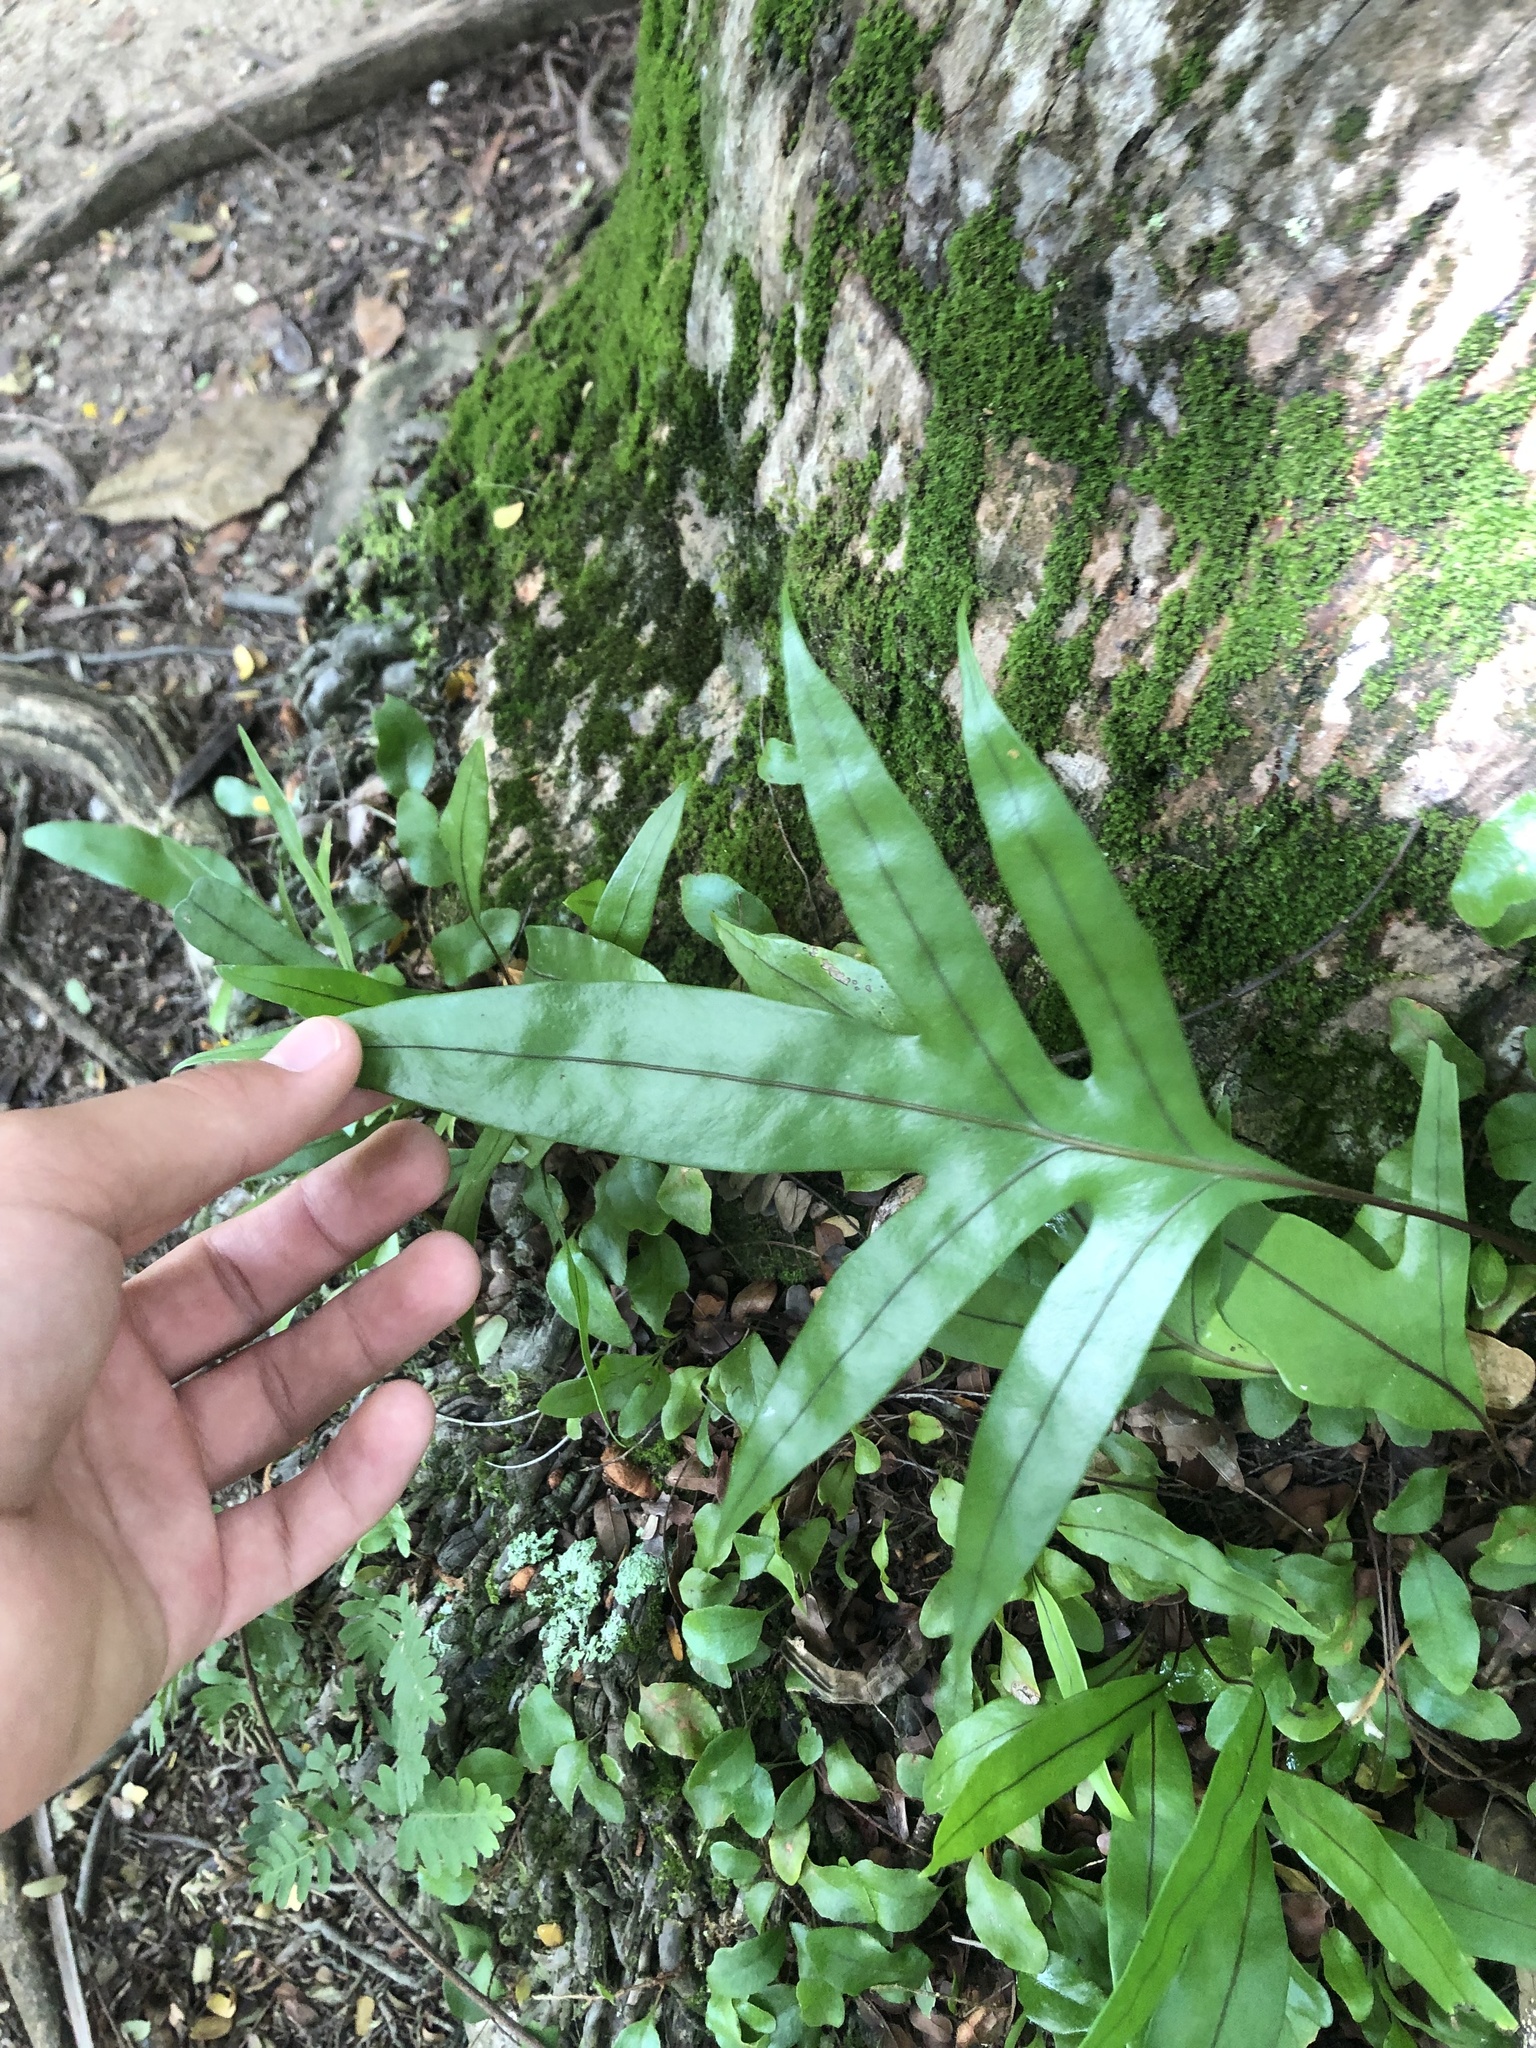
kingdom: Plantae
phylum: Tracheophyta
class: Polypodiopsida
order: Polypodiales
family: Polypodiaceae
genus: Microsorum
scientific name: Microsorum grossum
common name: Musk fern
